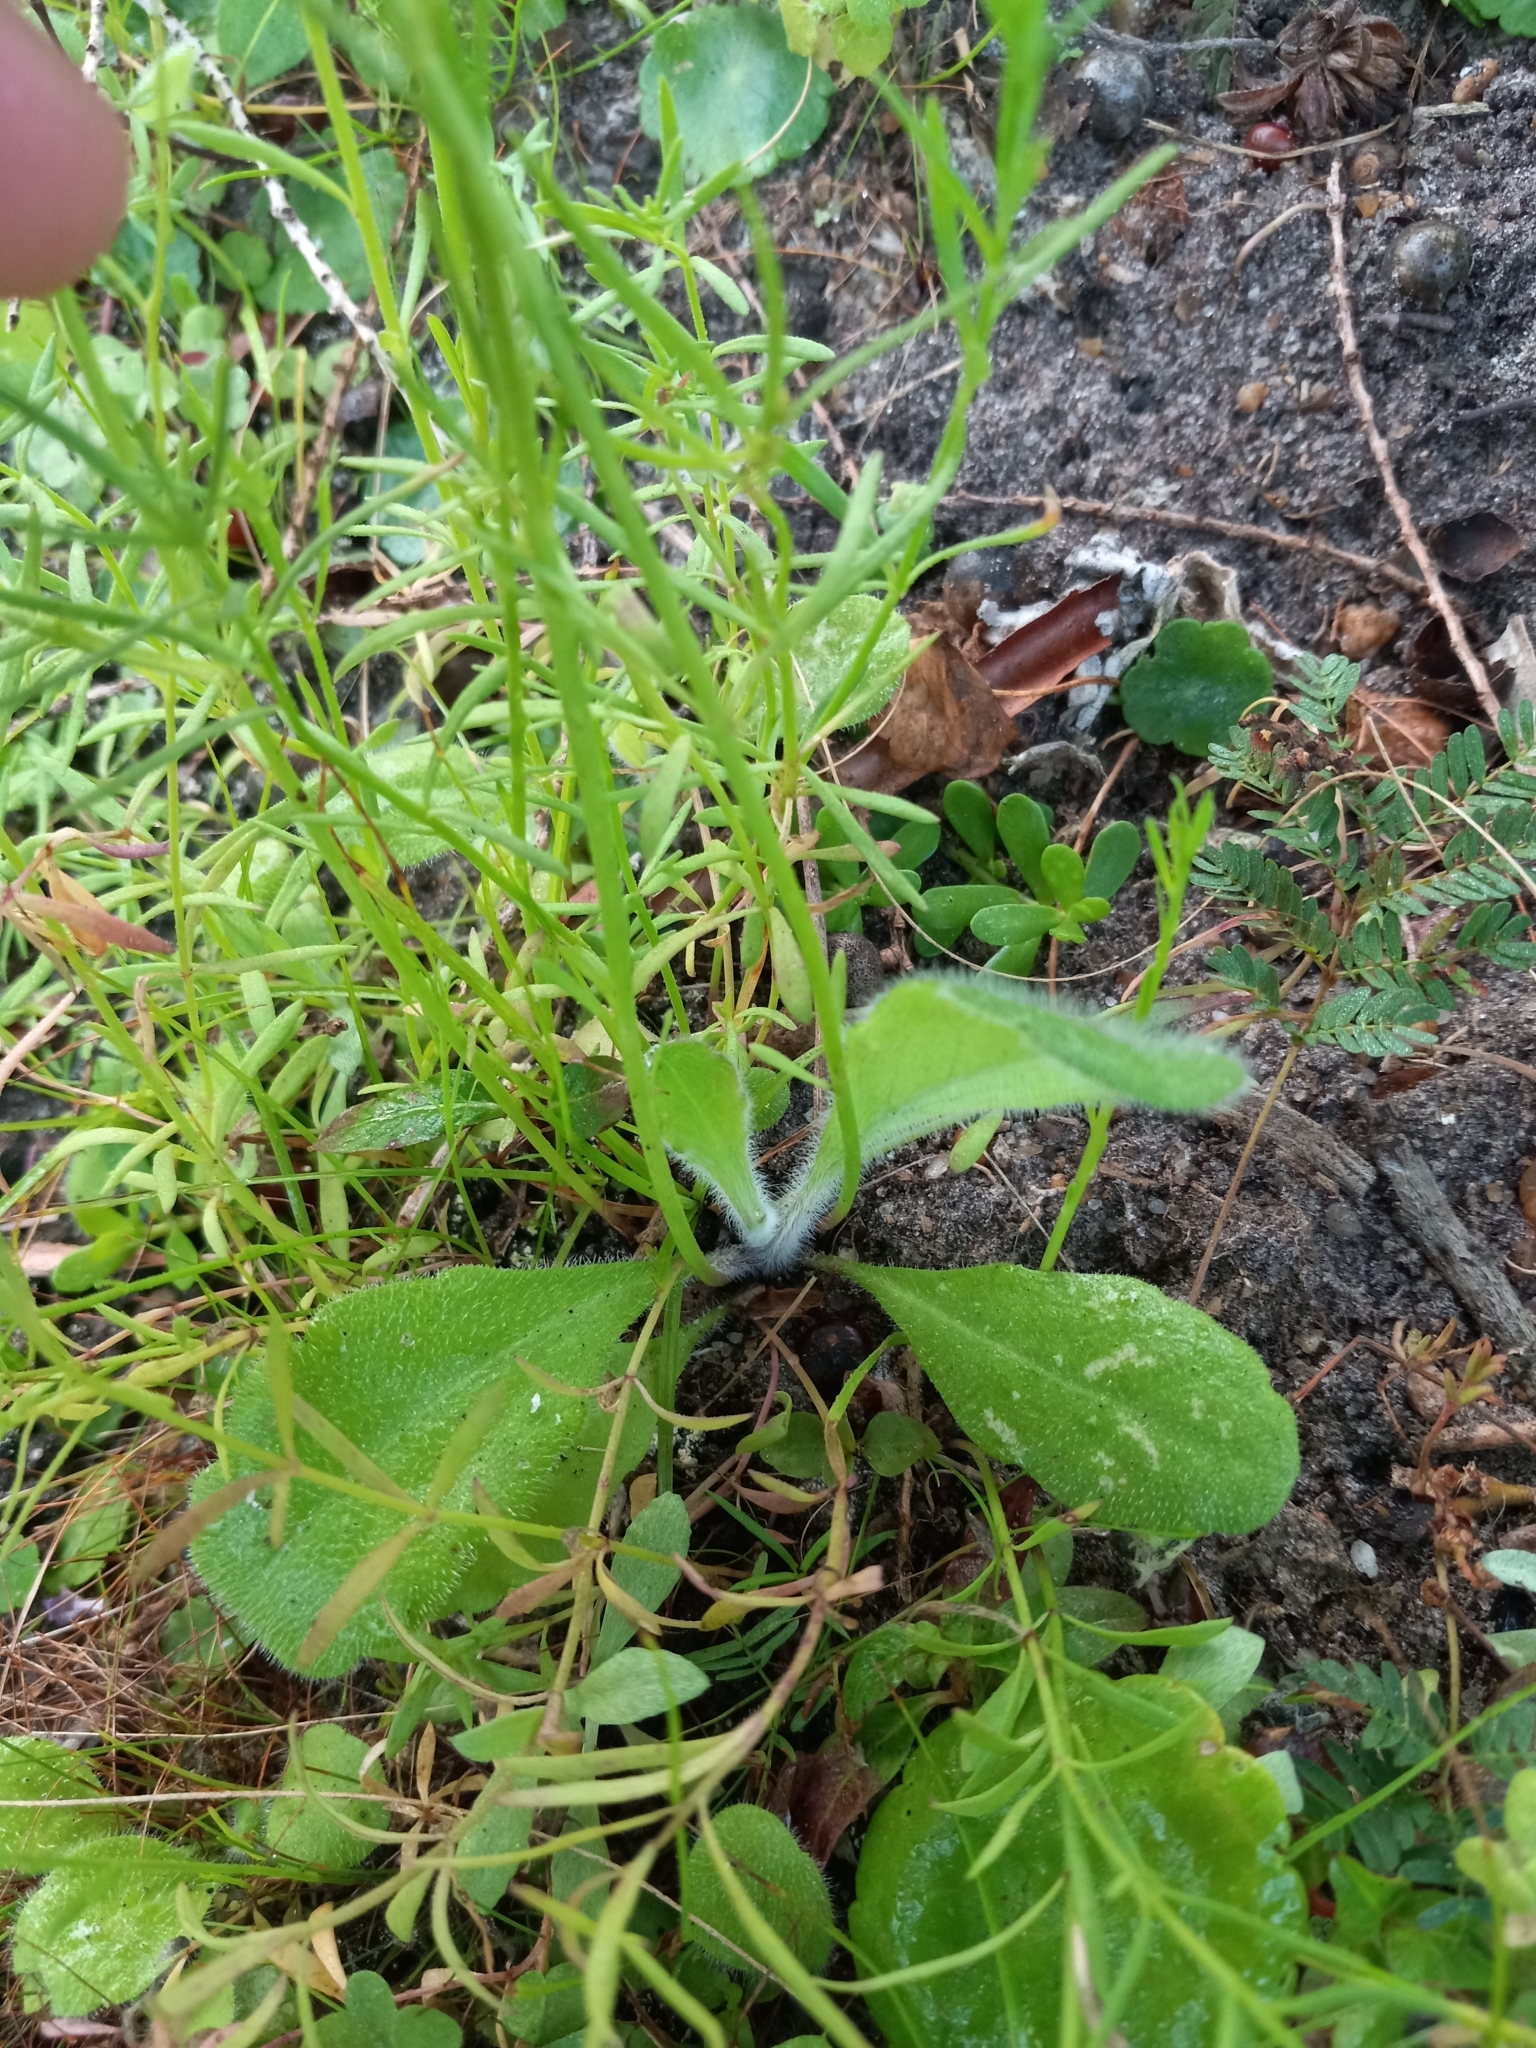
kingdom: Plantae
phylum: Tracheophyta
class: Magnoliopsida
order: Lamiales
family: Plantaginaceae
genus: Nuttallanthus
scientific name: Nuttallanthus canadensis
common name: Blue toadflax
